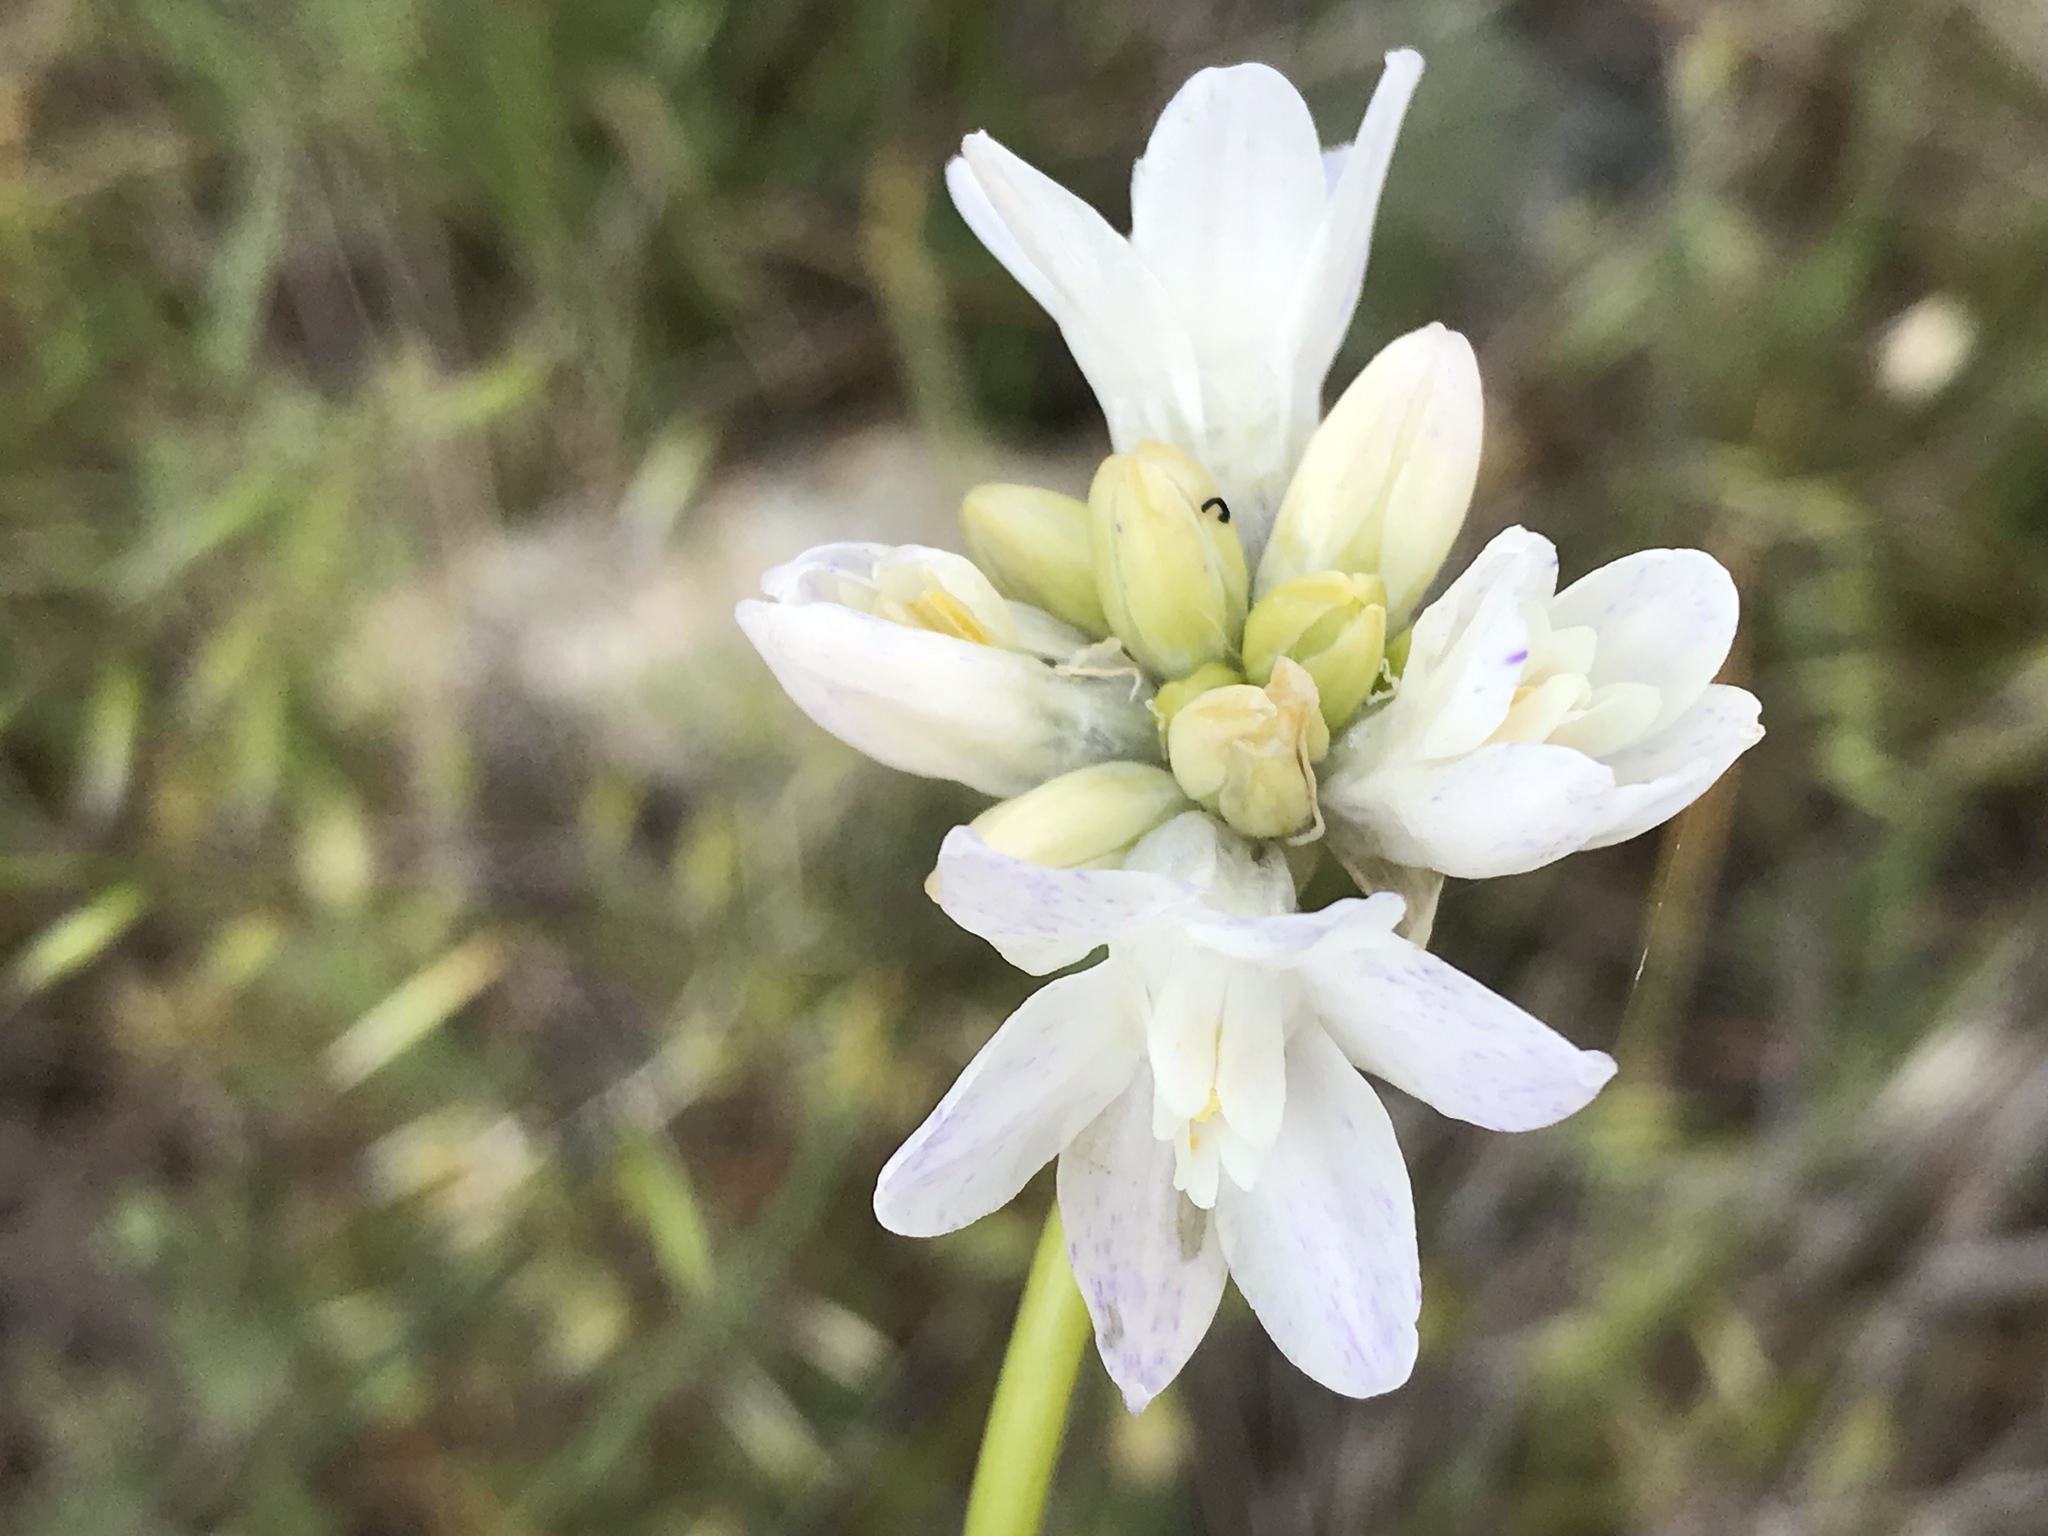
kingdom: Plantae
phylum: Tracheophyta
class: Liliopsida
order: Asparagales
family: Asparagaceae
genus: Dipterostemon
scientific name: Dipterostemon capitatus
